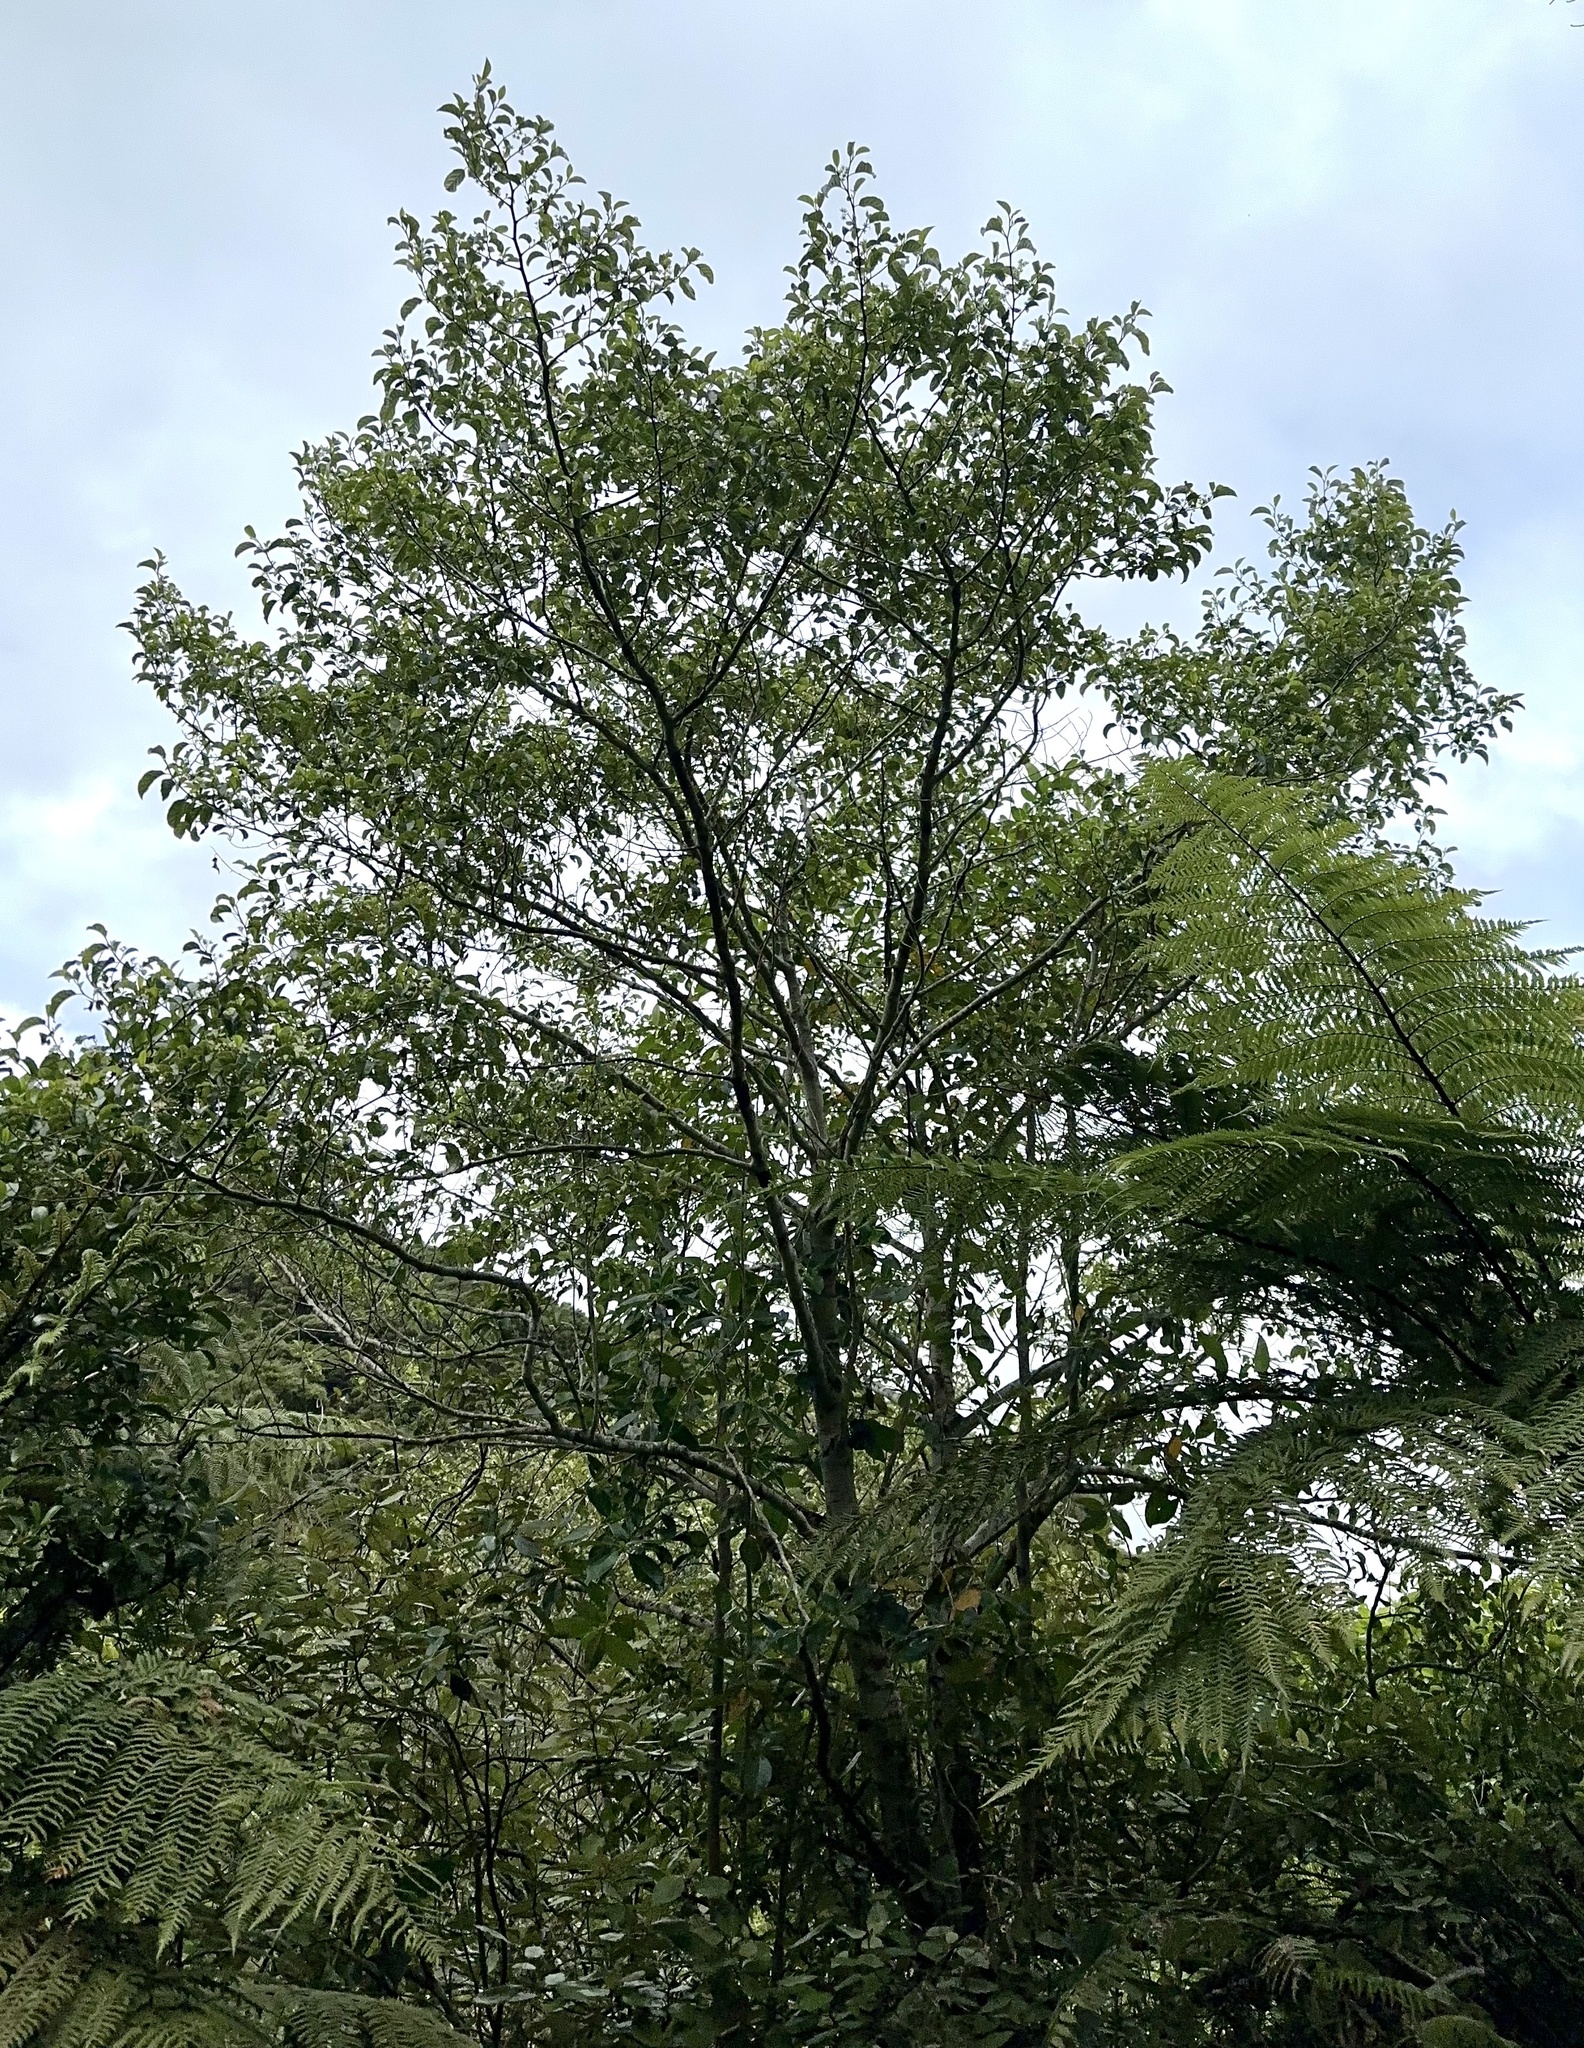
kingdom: Plantae
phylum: Tracheophyta
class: Magnoliopsida
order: Asterales
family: Rousseaceae
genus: Carpodetus
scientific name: Carpodetus serratus
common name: White mapau
